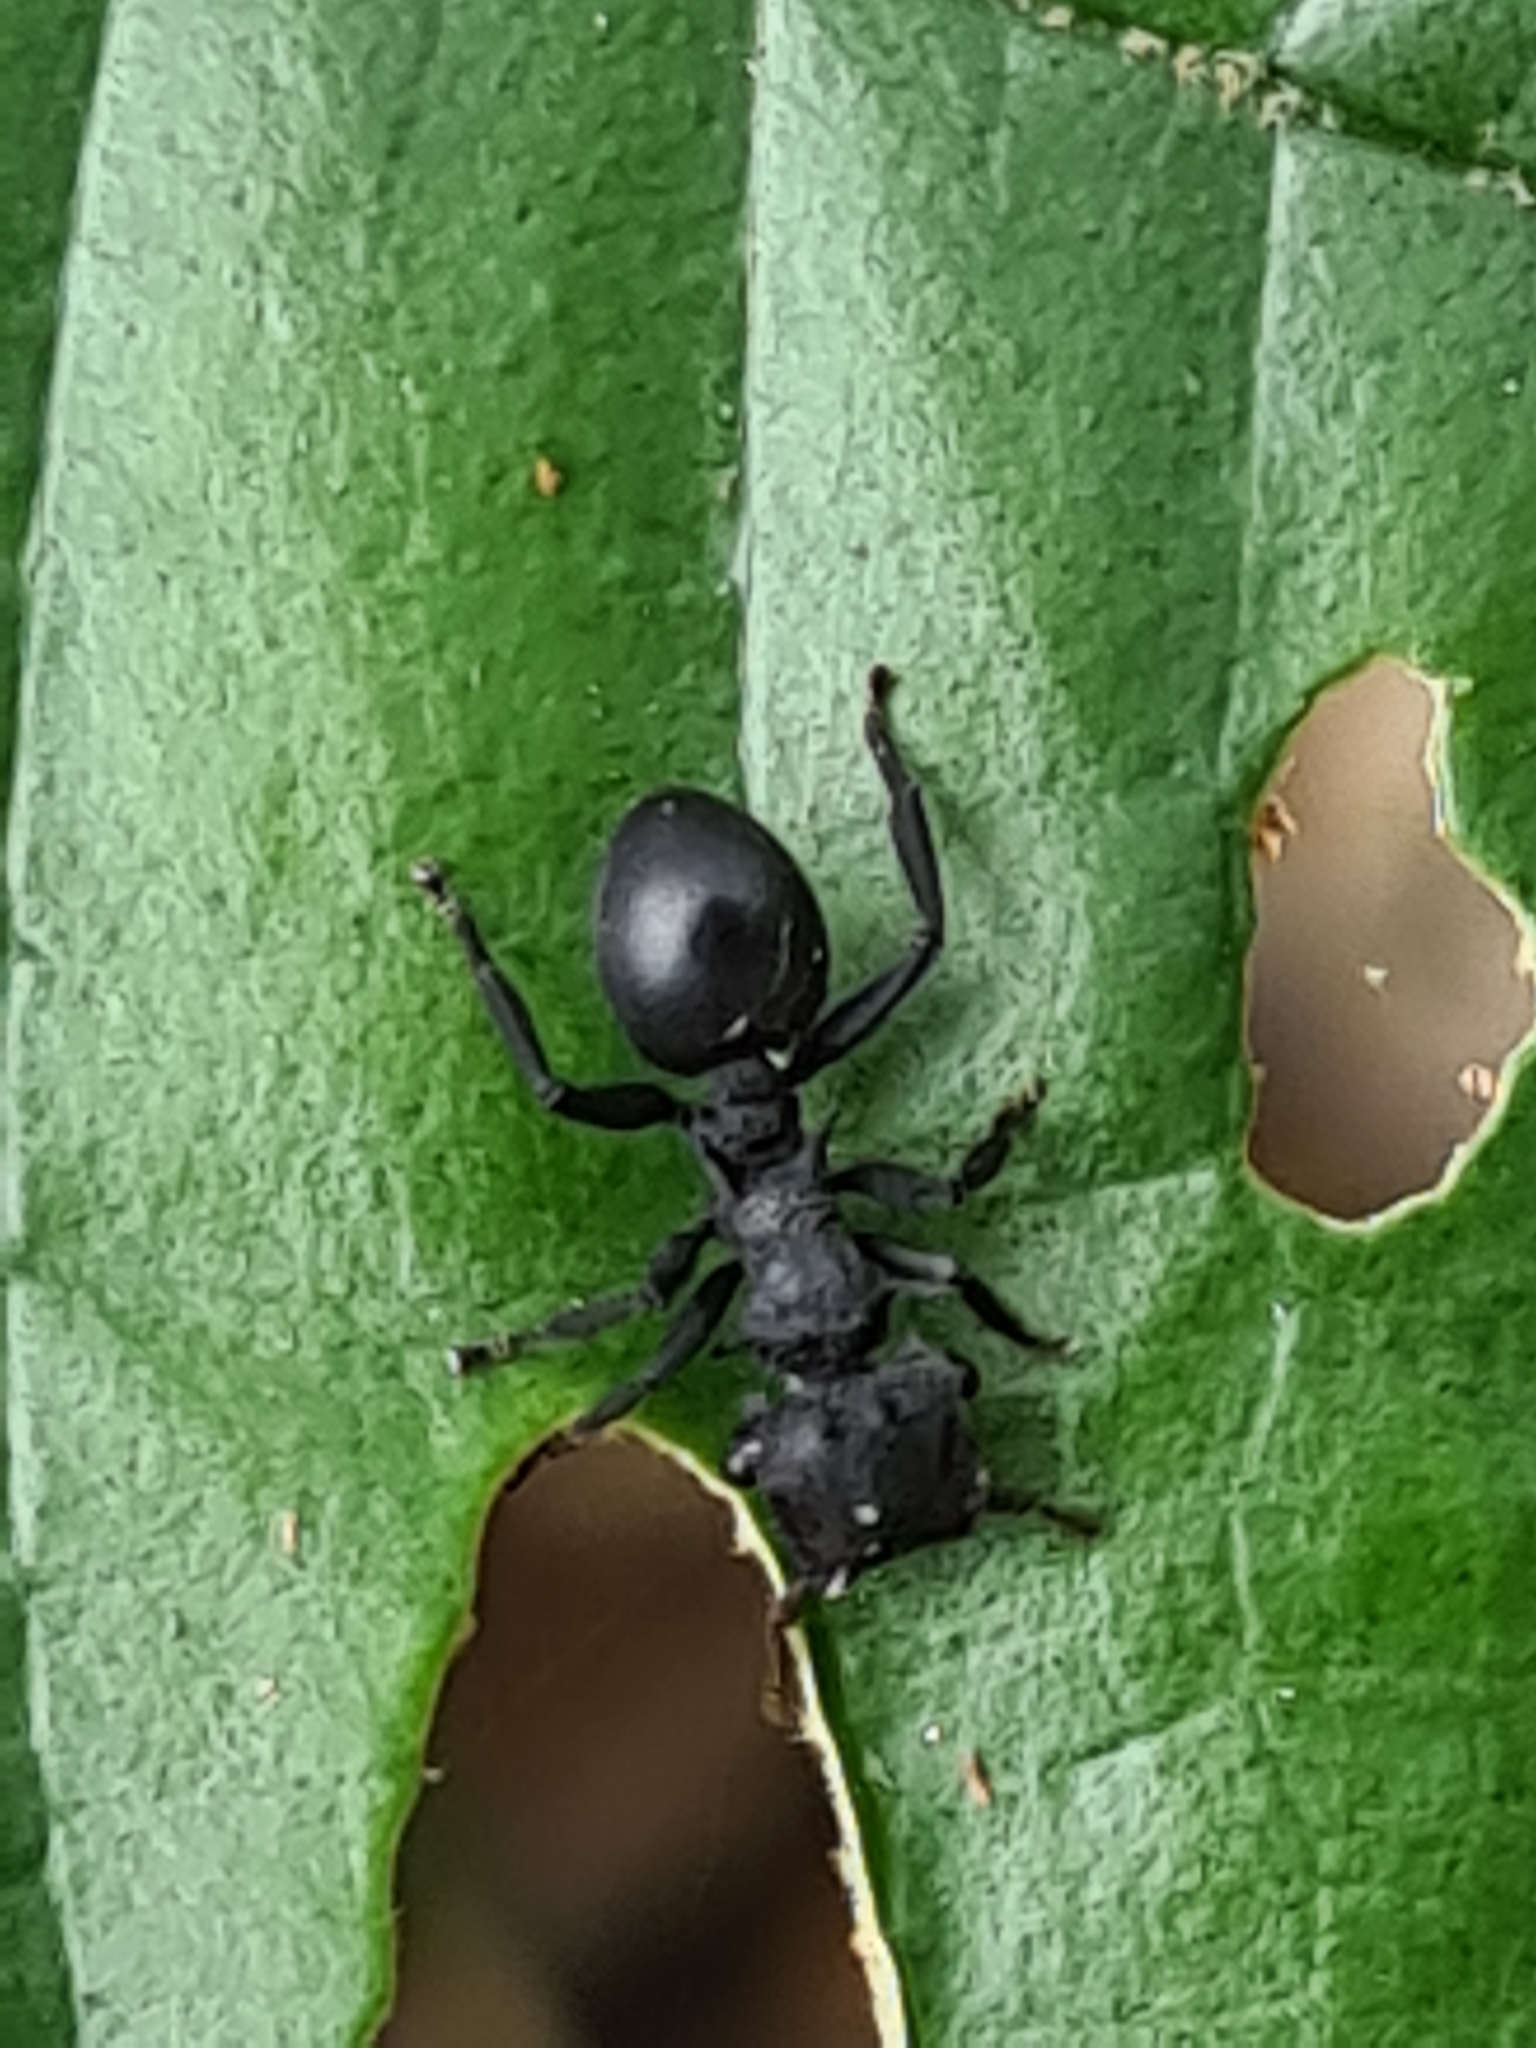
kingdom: Animalia
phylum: Arthropoda
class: Insecta
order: Hymenoptera
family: Formicidae
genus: Cephalotes
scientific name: Cephalotes placidus
